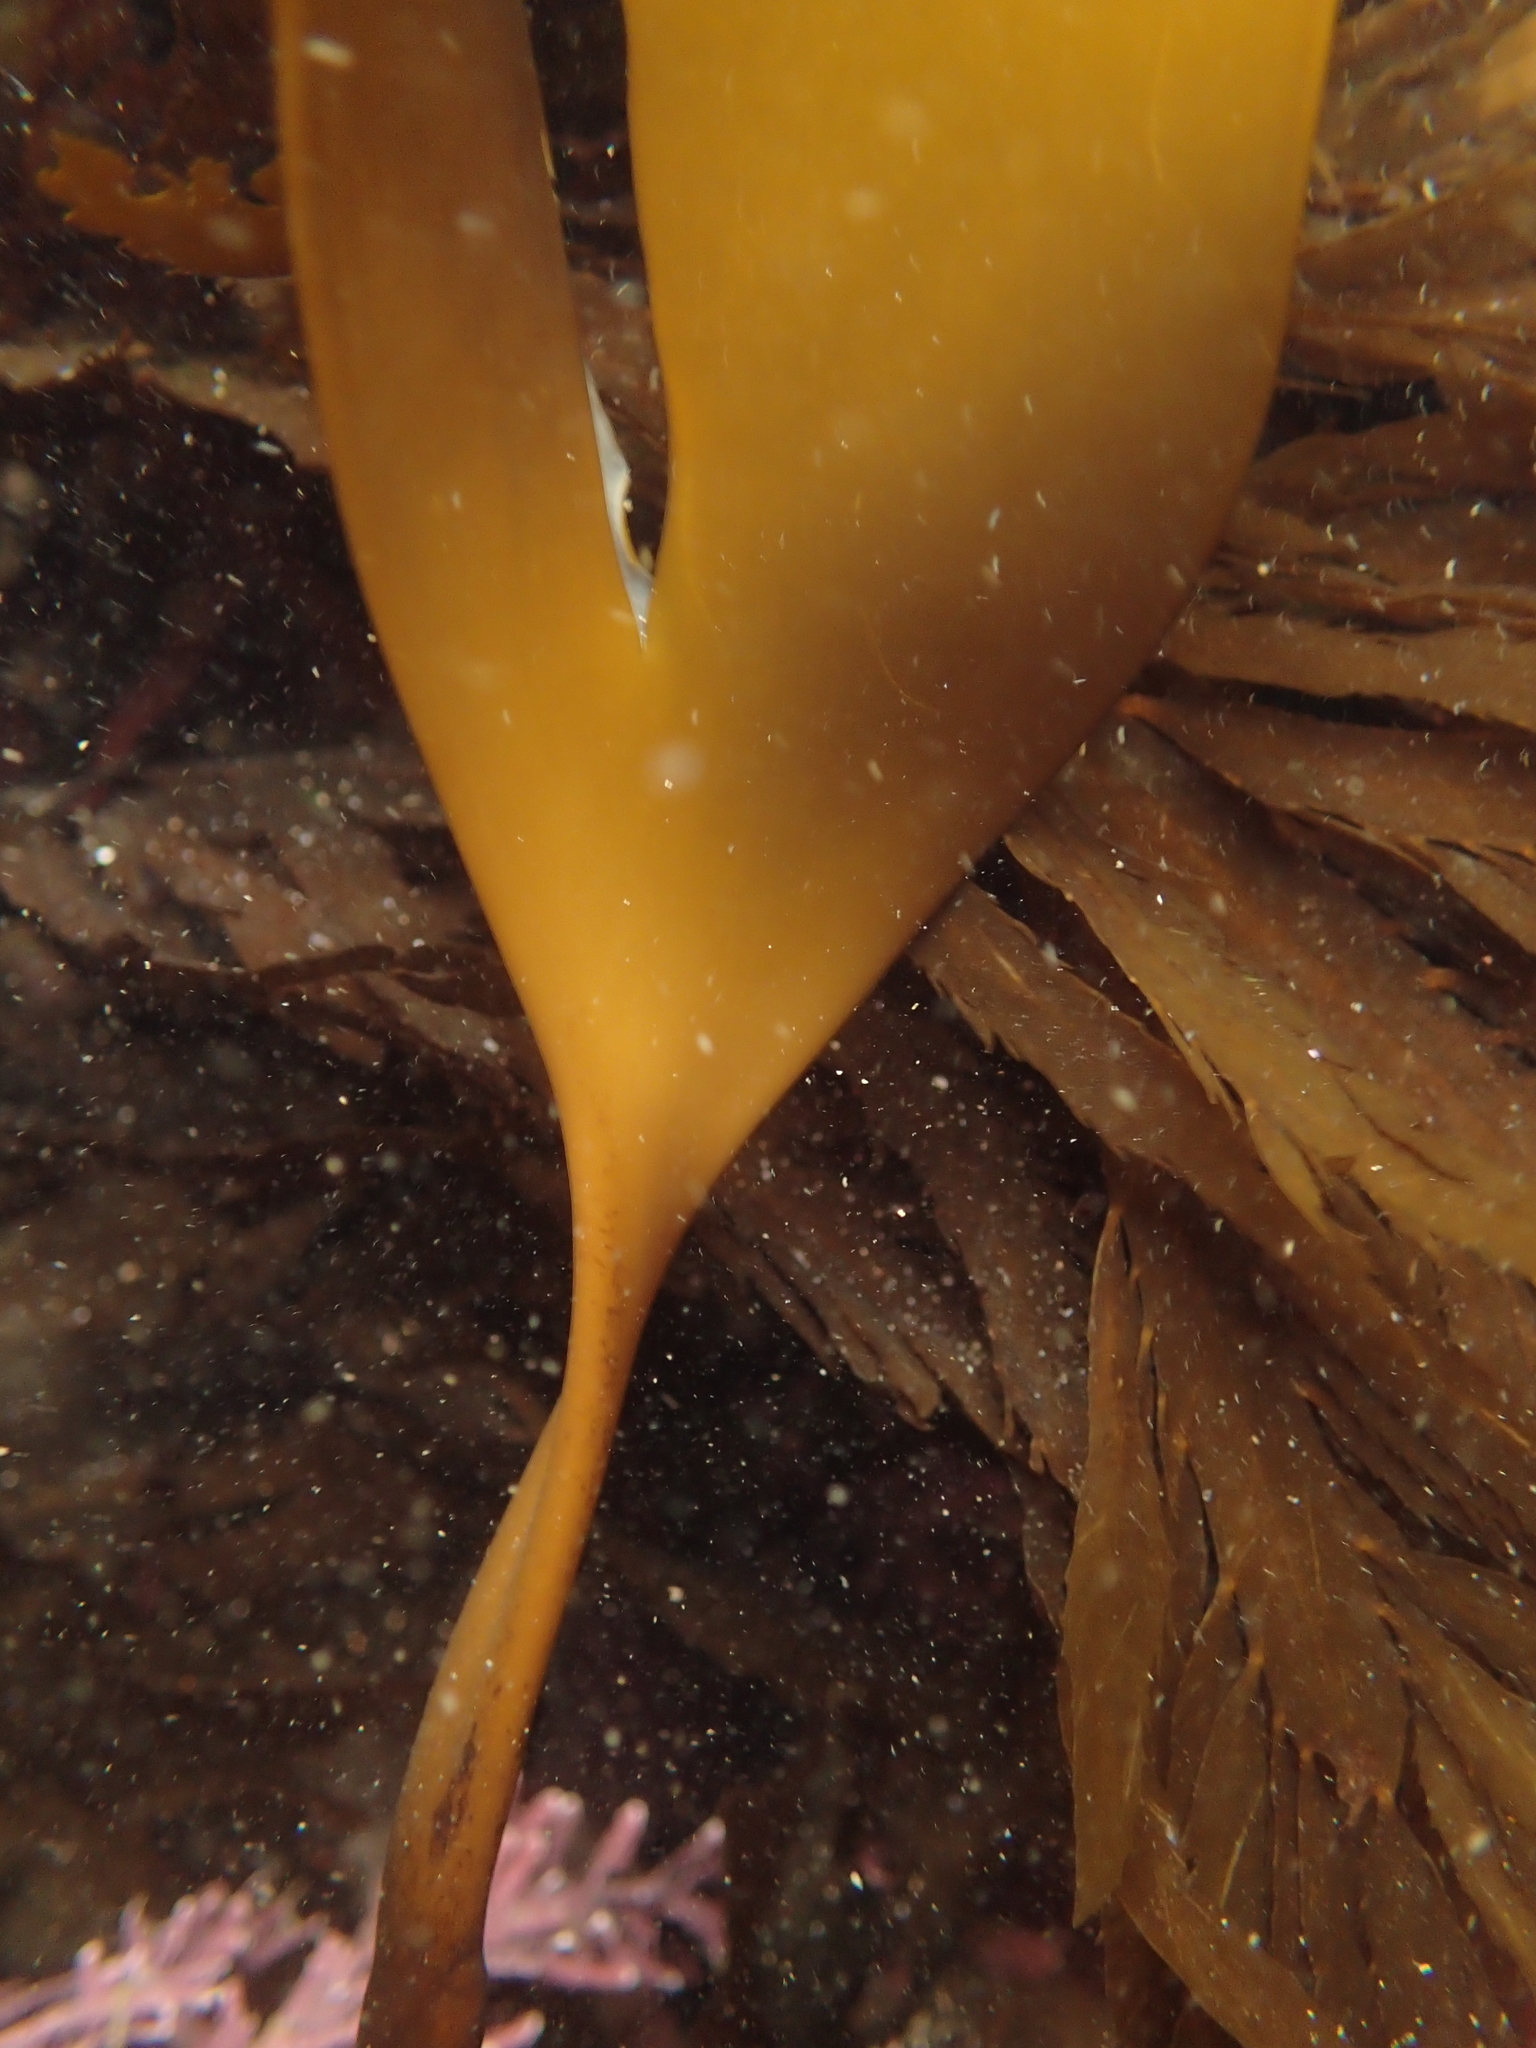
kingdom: Chromista
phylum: Ochrophyta
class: Phaeophyceae
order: Laminariales
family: Laminariaceae
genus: Laminaria
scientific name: Laminaria setchellii
